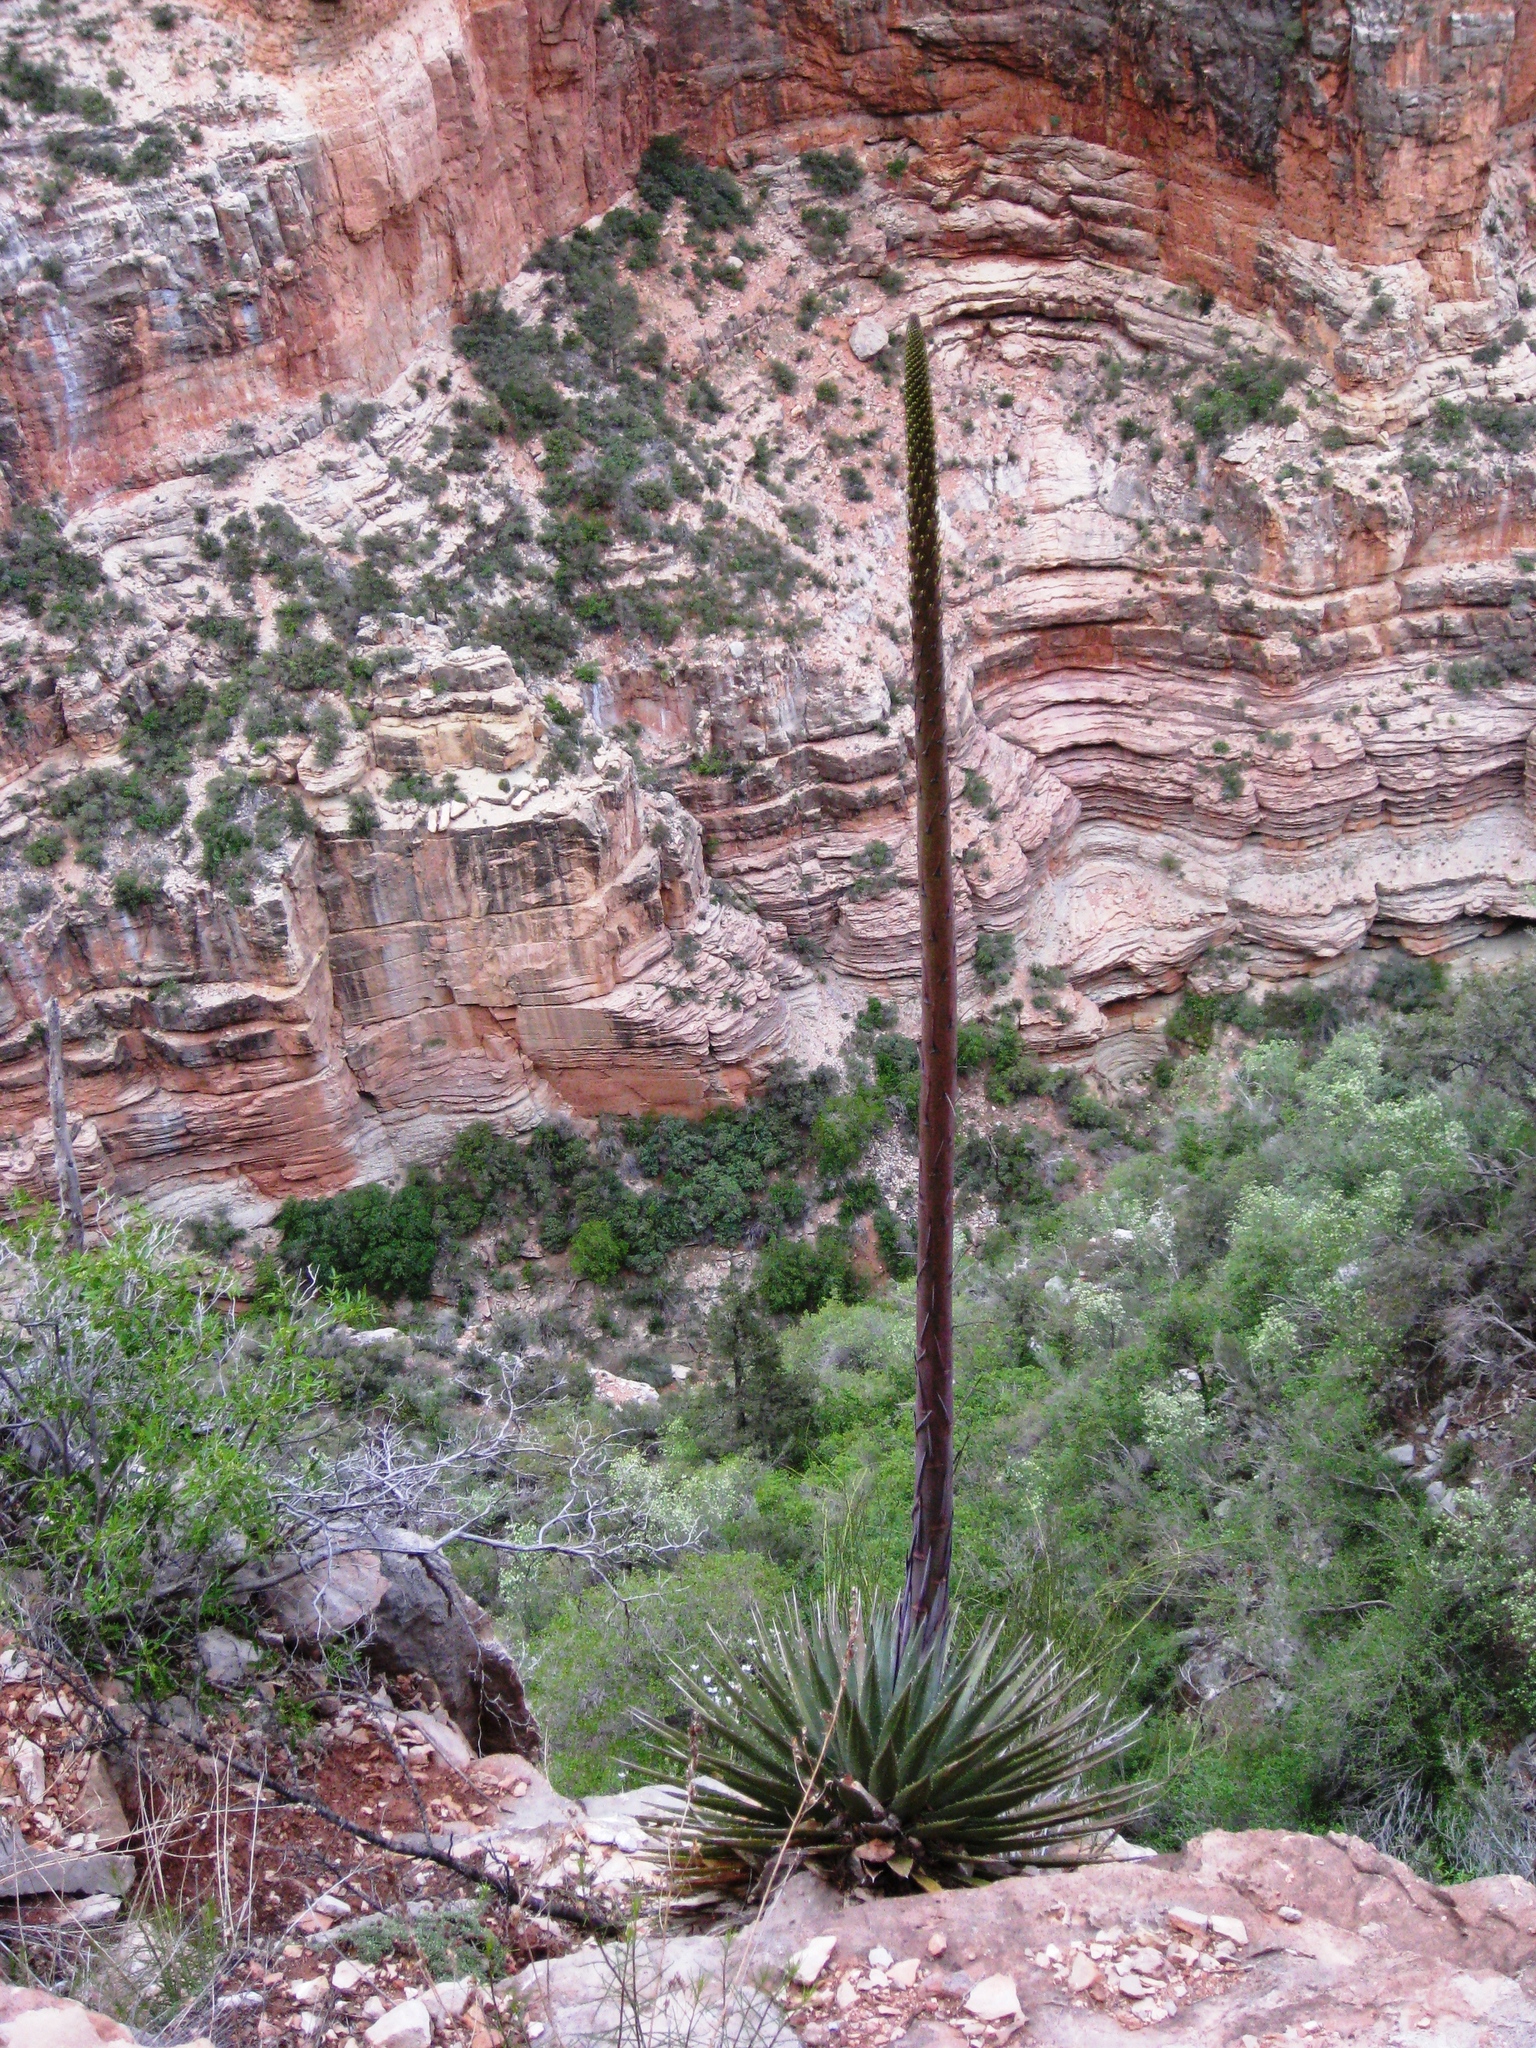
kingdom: Plantae
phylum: Tracheophyta
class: Liliopsida
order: Asparagales
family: Asparagaceae
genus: Agave
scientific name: Agave utahensis
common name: Utah agave
